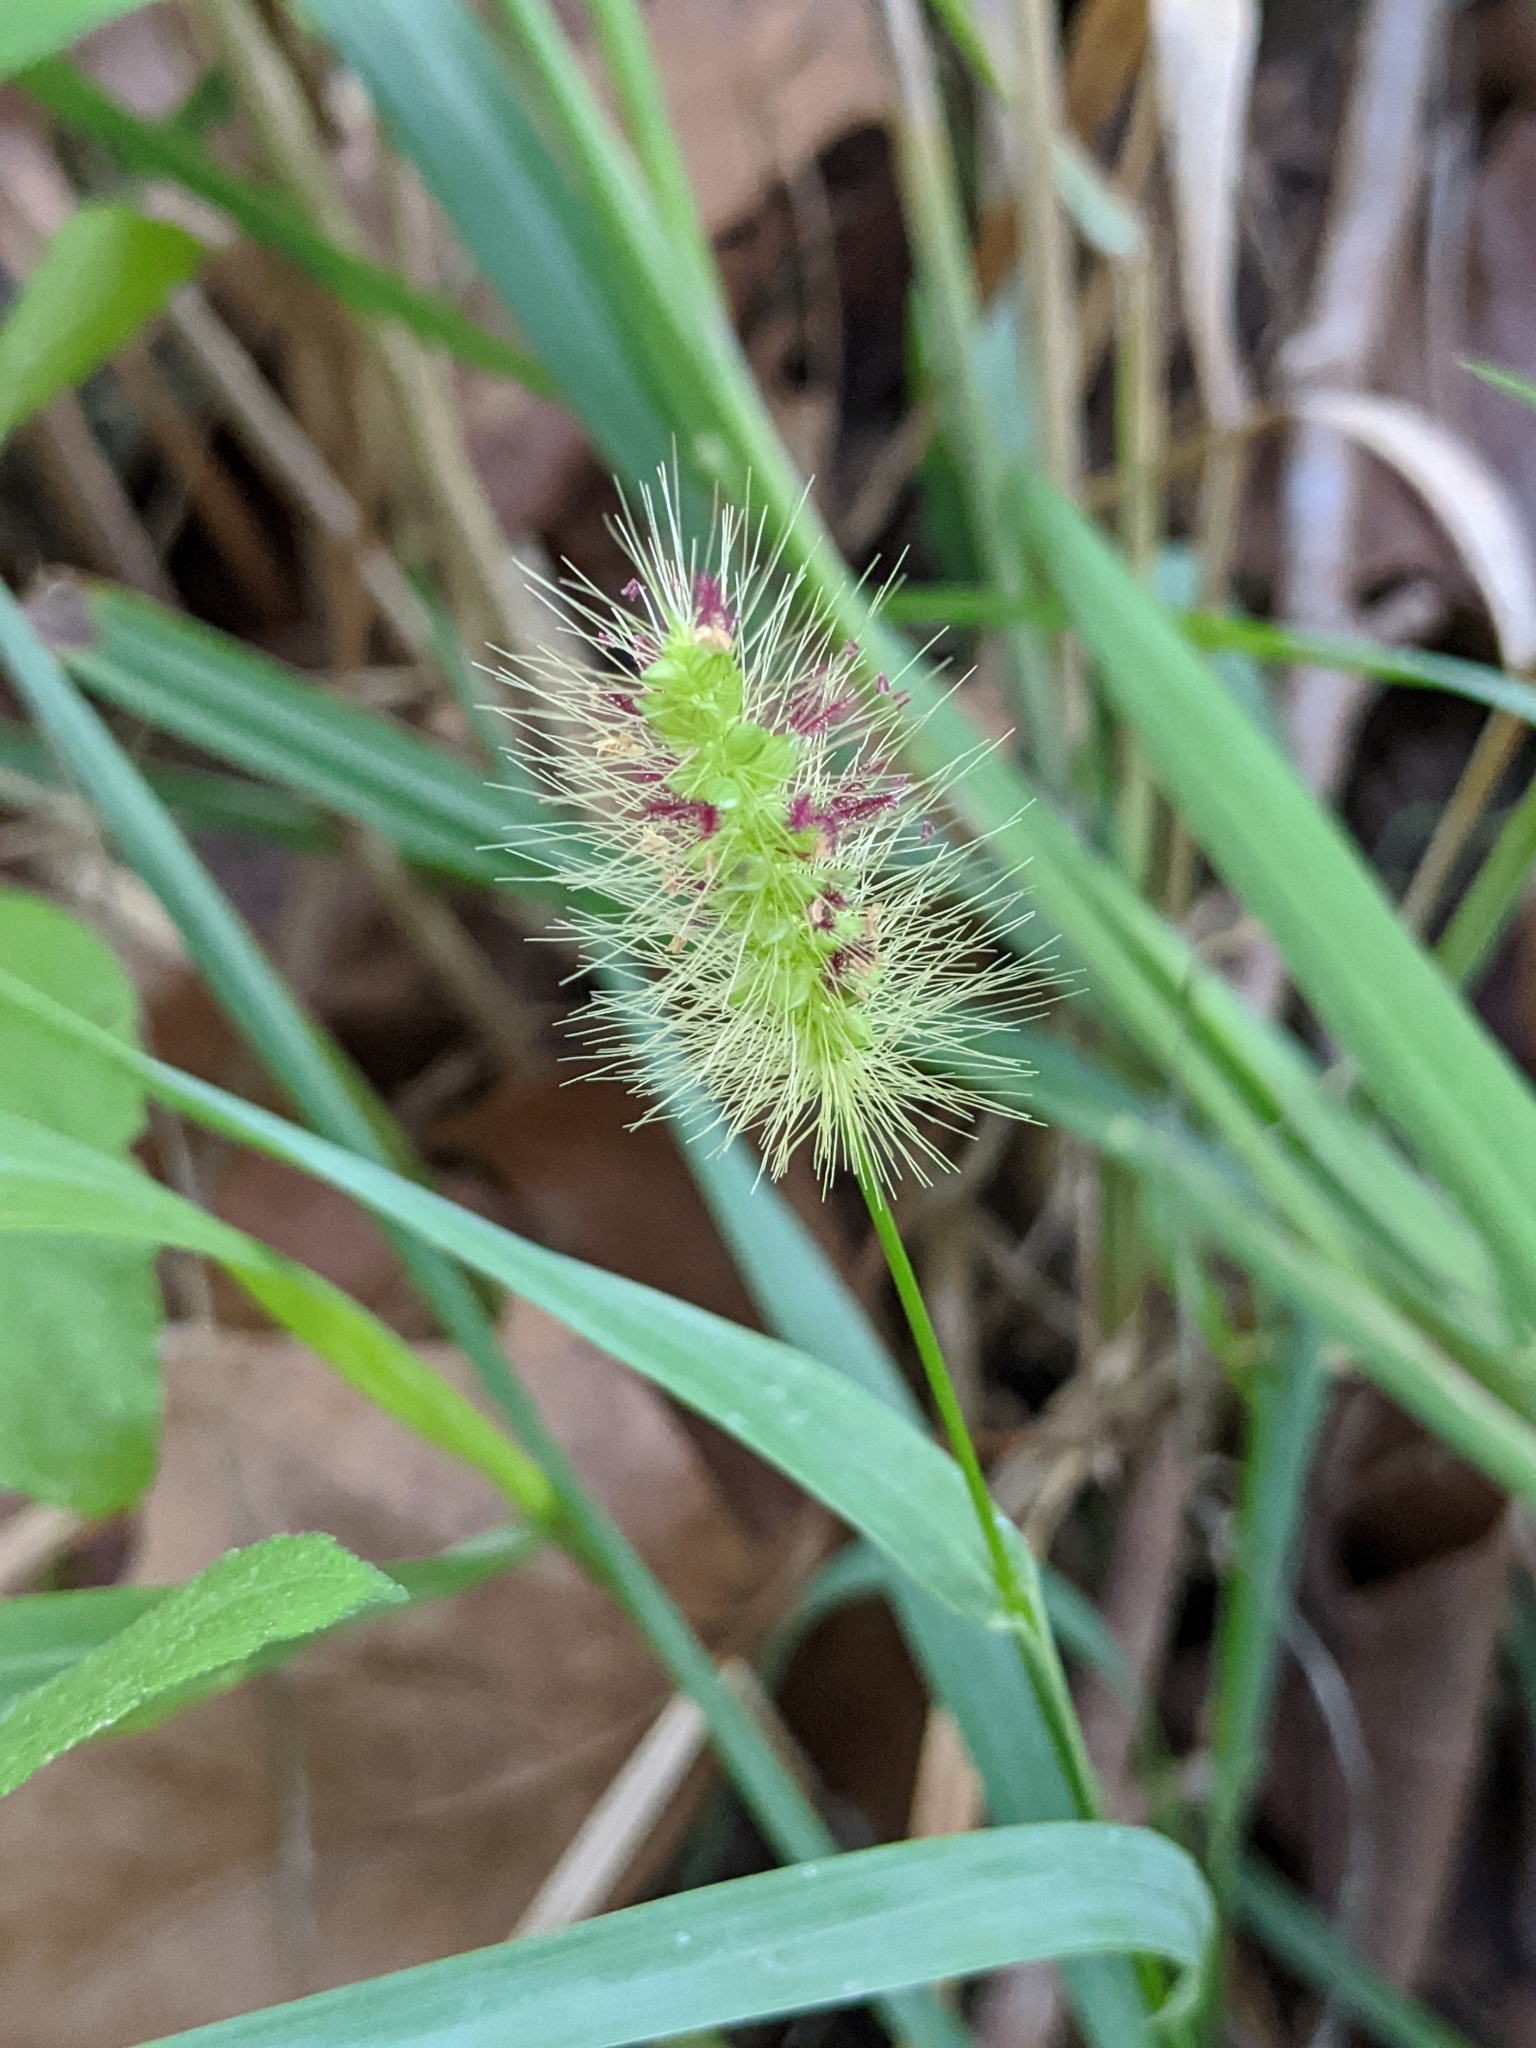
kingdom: Plantae
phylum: Tracheophyta
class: Liliopsida
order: Poales
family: Poaceae
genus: Setaria
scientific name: Setaria parviflora
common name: Knotroot bristle-grass
